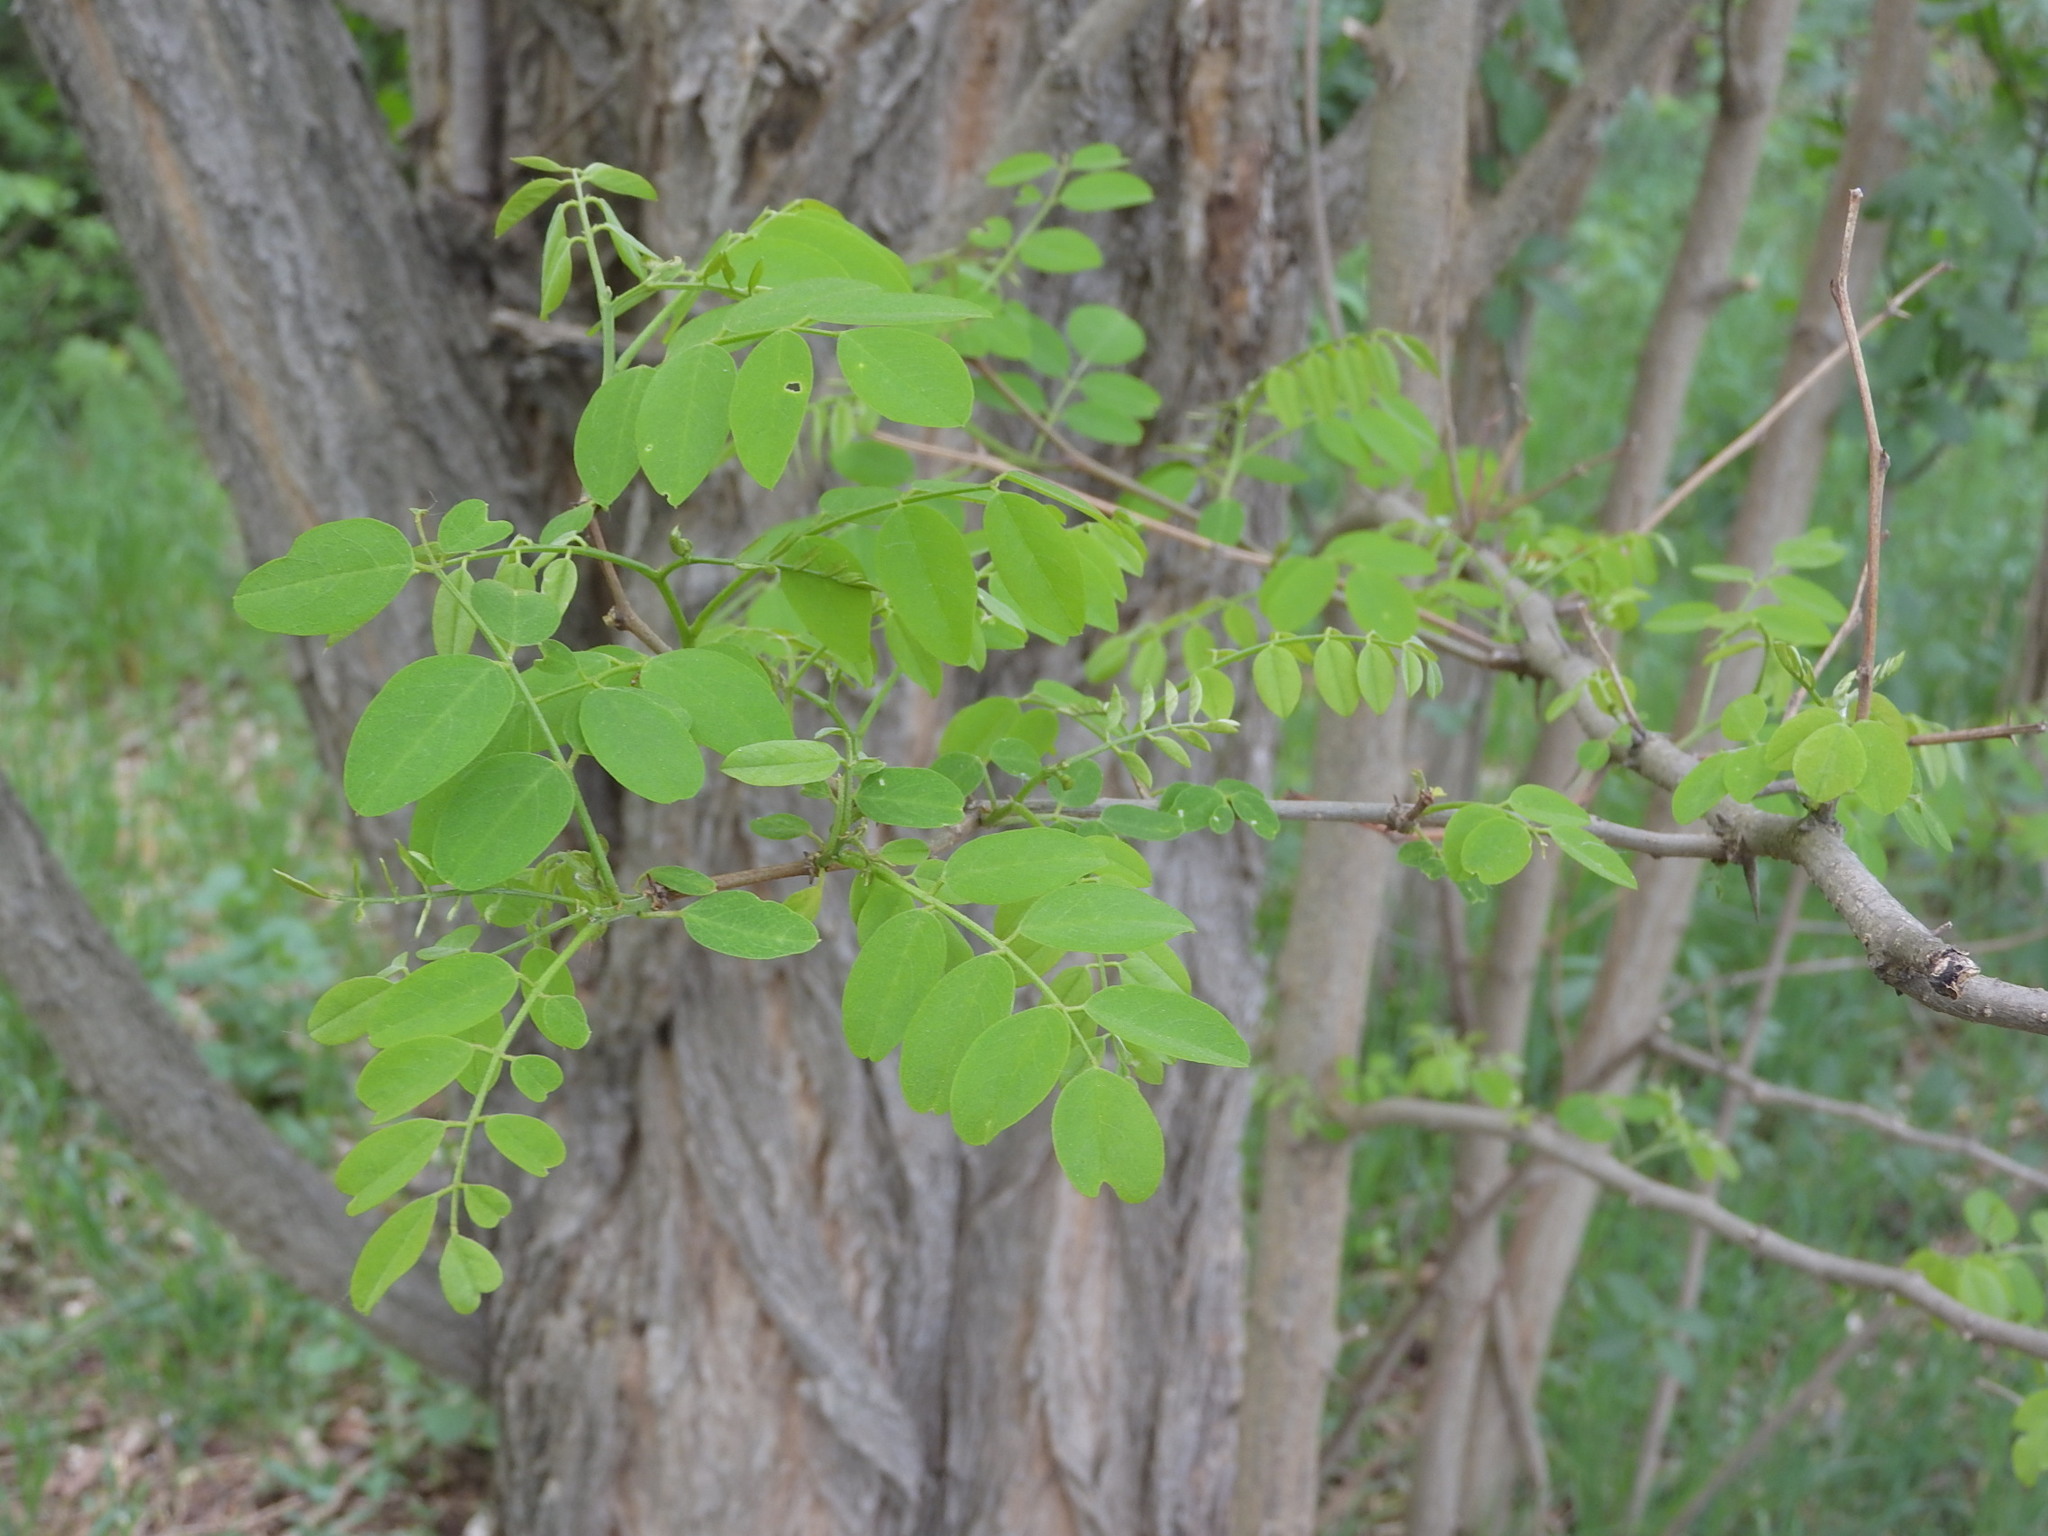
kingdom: Plantae
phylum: Tracheophyta
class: Magnoliopsida
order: Fabales
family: Fabaceae
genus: Robinia
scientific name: Robinia pseudoacacia
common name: Black locust
